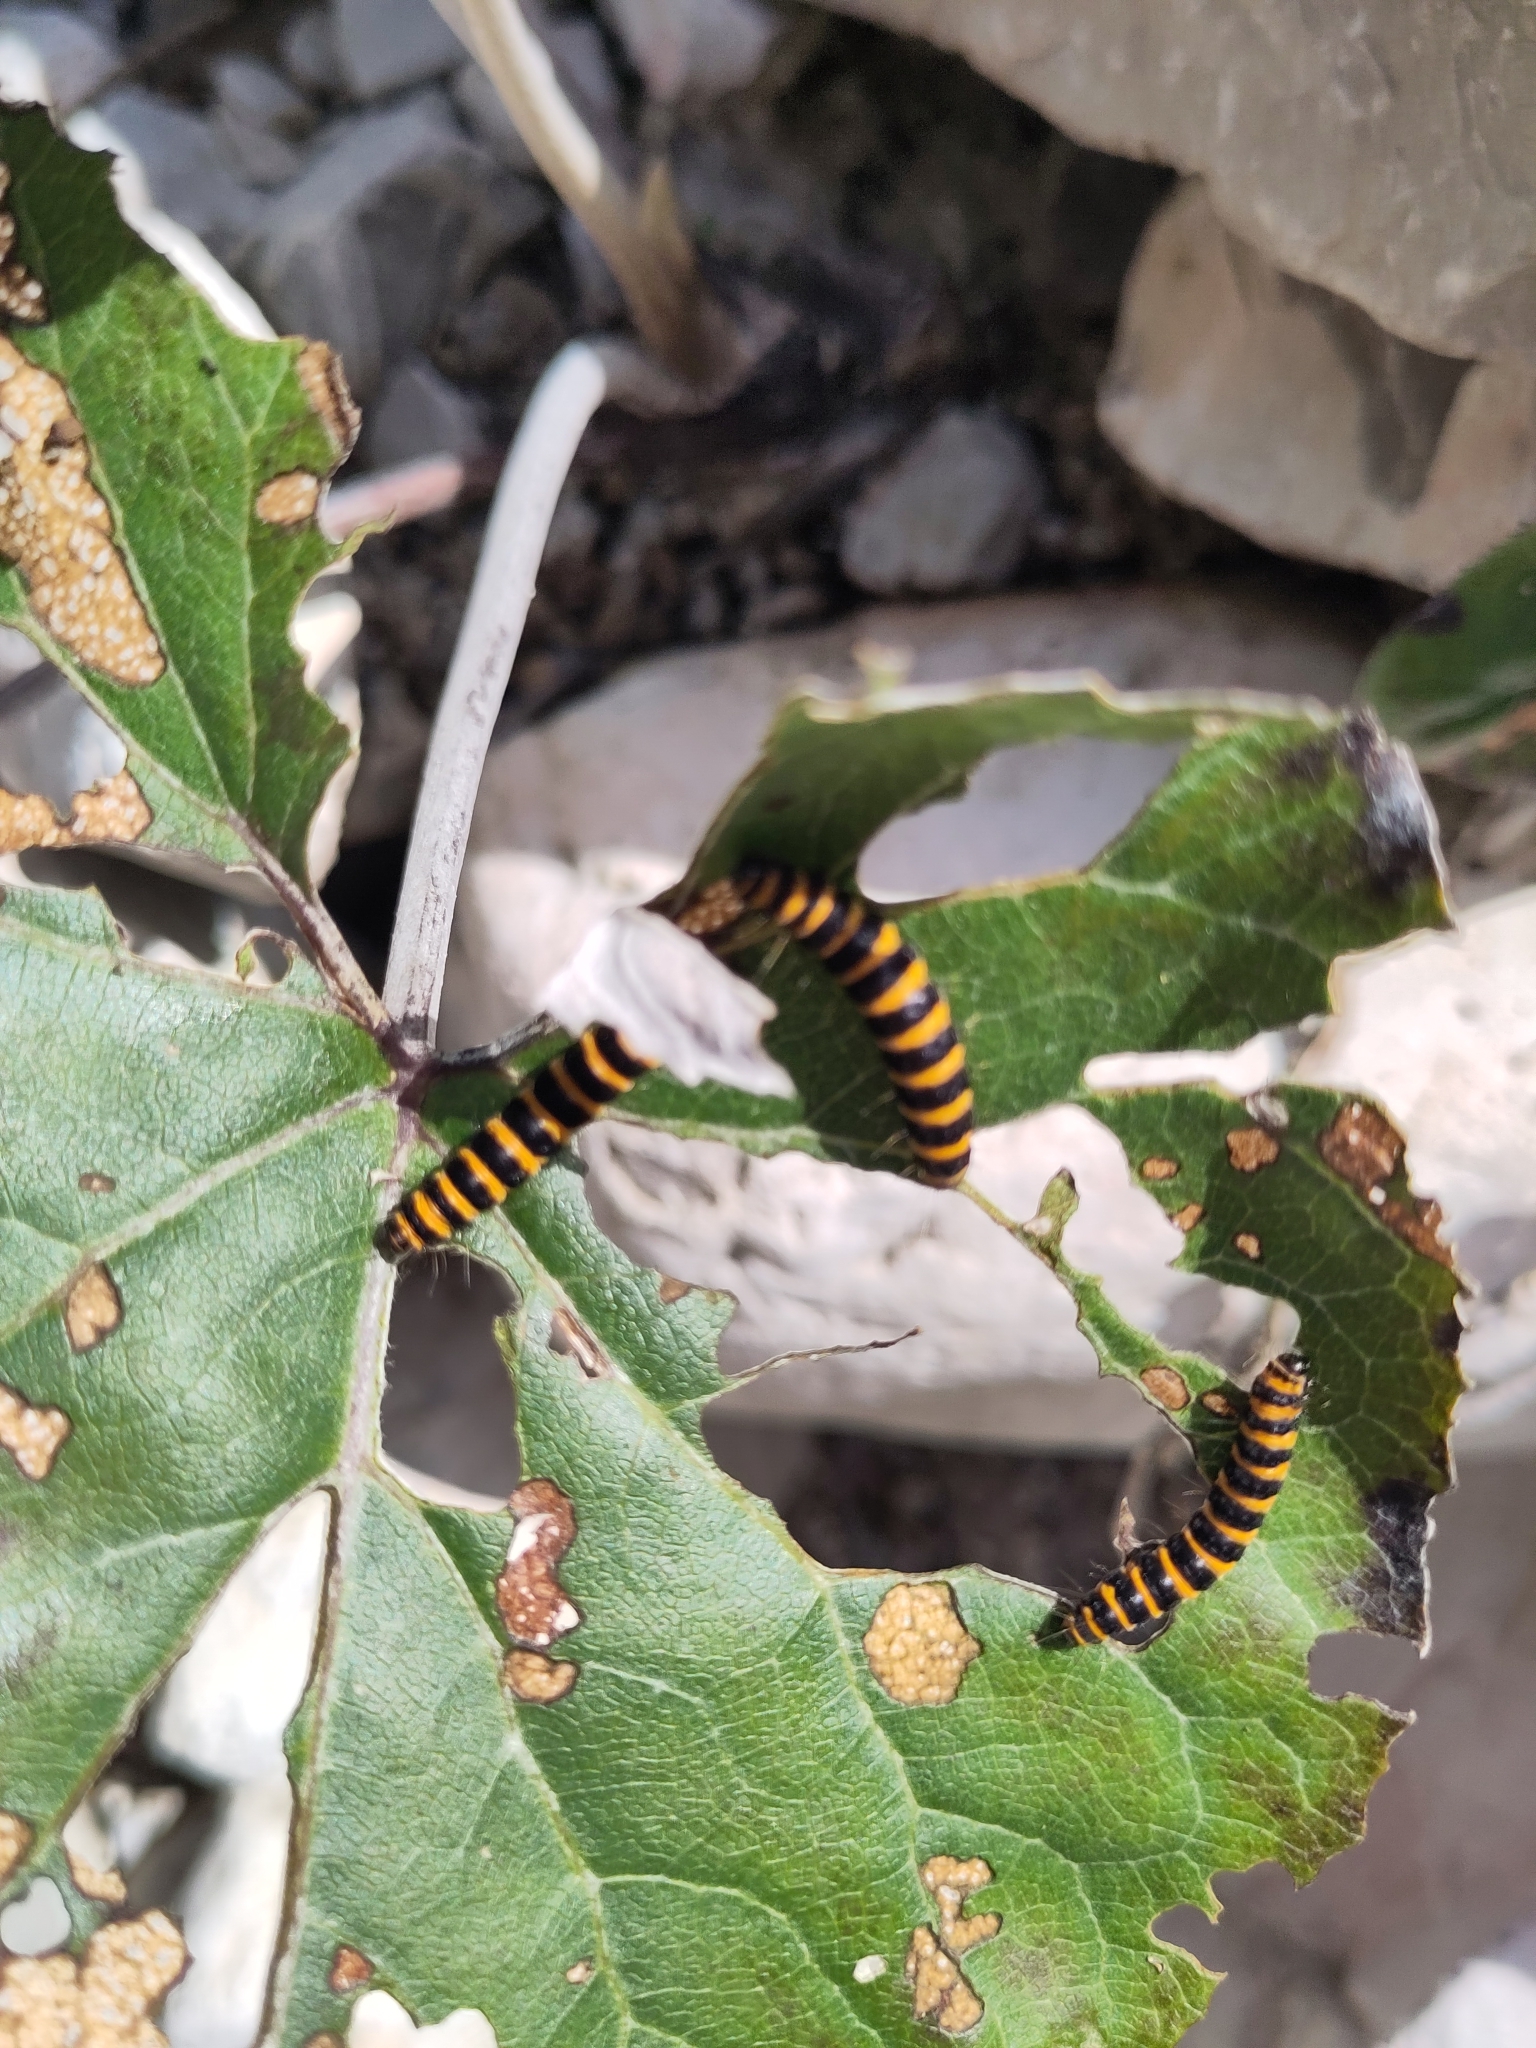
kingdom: Animalia
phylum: Arthropoda
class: Insecta
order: Lepidoptera
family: Erebidae
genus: Tyria
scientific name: Tyria jacobaeae
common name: Cinnabar
